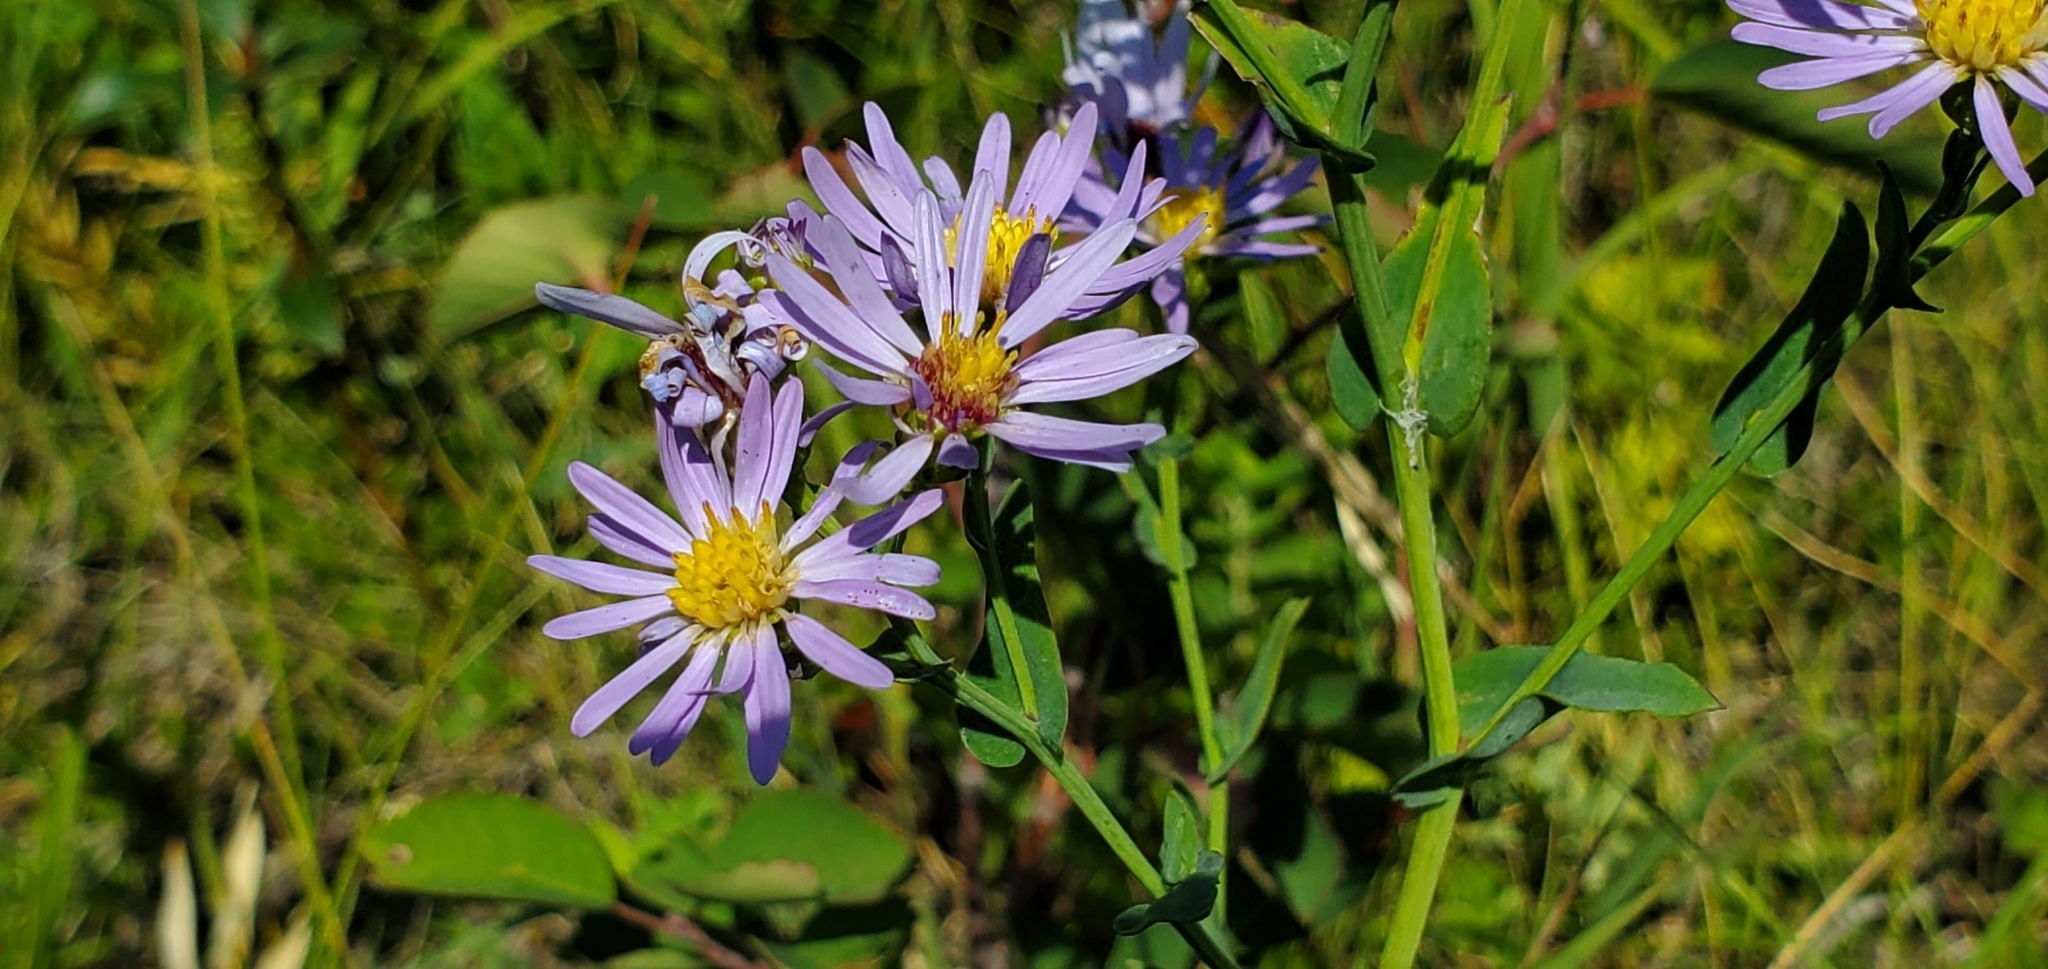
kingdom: Plantae
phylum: Tracheophyta
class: Magnoliopsida
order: Asterales
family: Asteraceae
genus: Symphyotrichum
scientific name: Symphyotrichum laeve
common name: Glaucous aster
